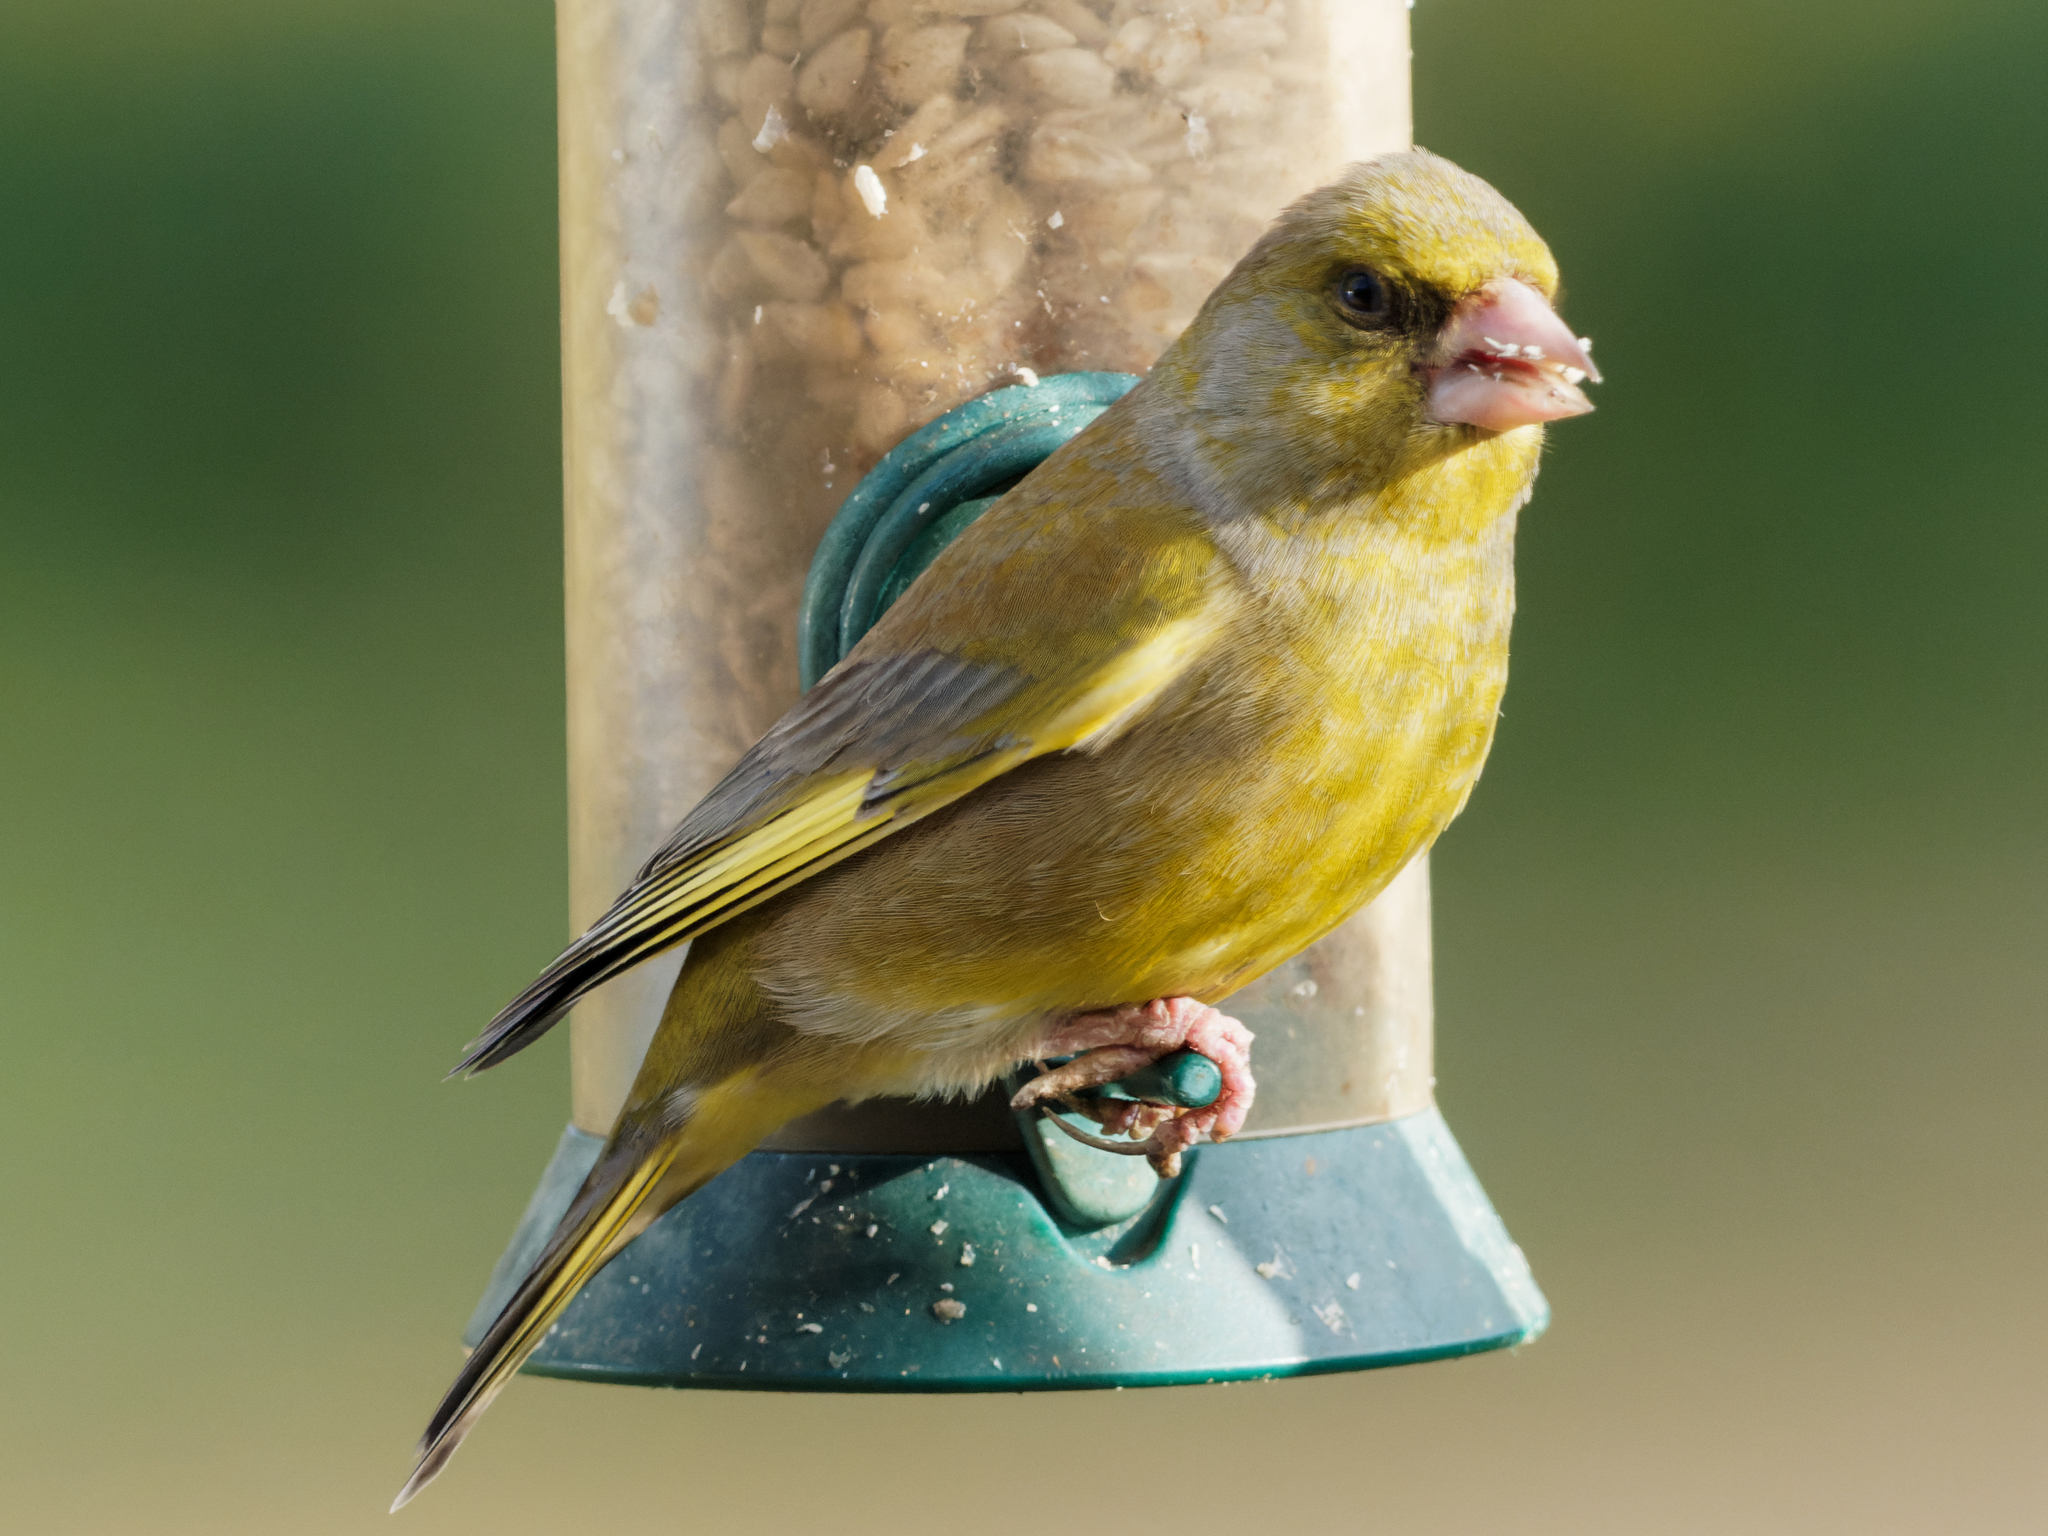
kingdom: Plantae
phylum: Tracheophyta
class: Liliopsida
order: Poales
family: Poaceae
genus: Chloris
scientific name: Chloris chloris
